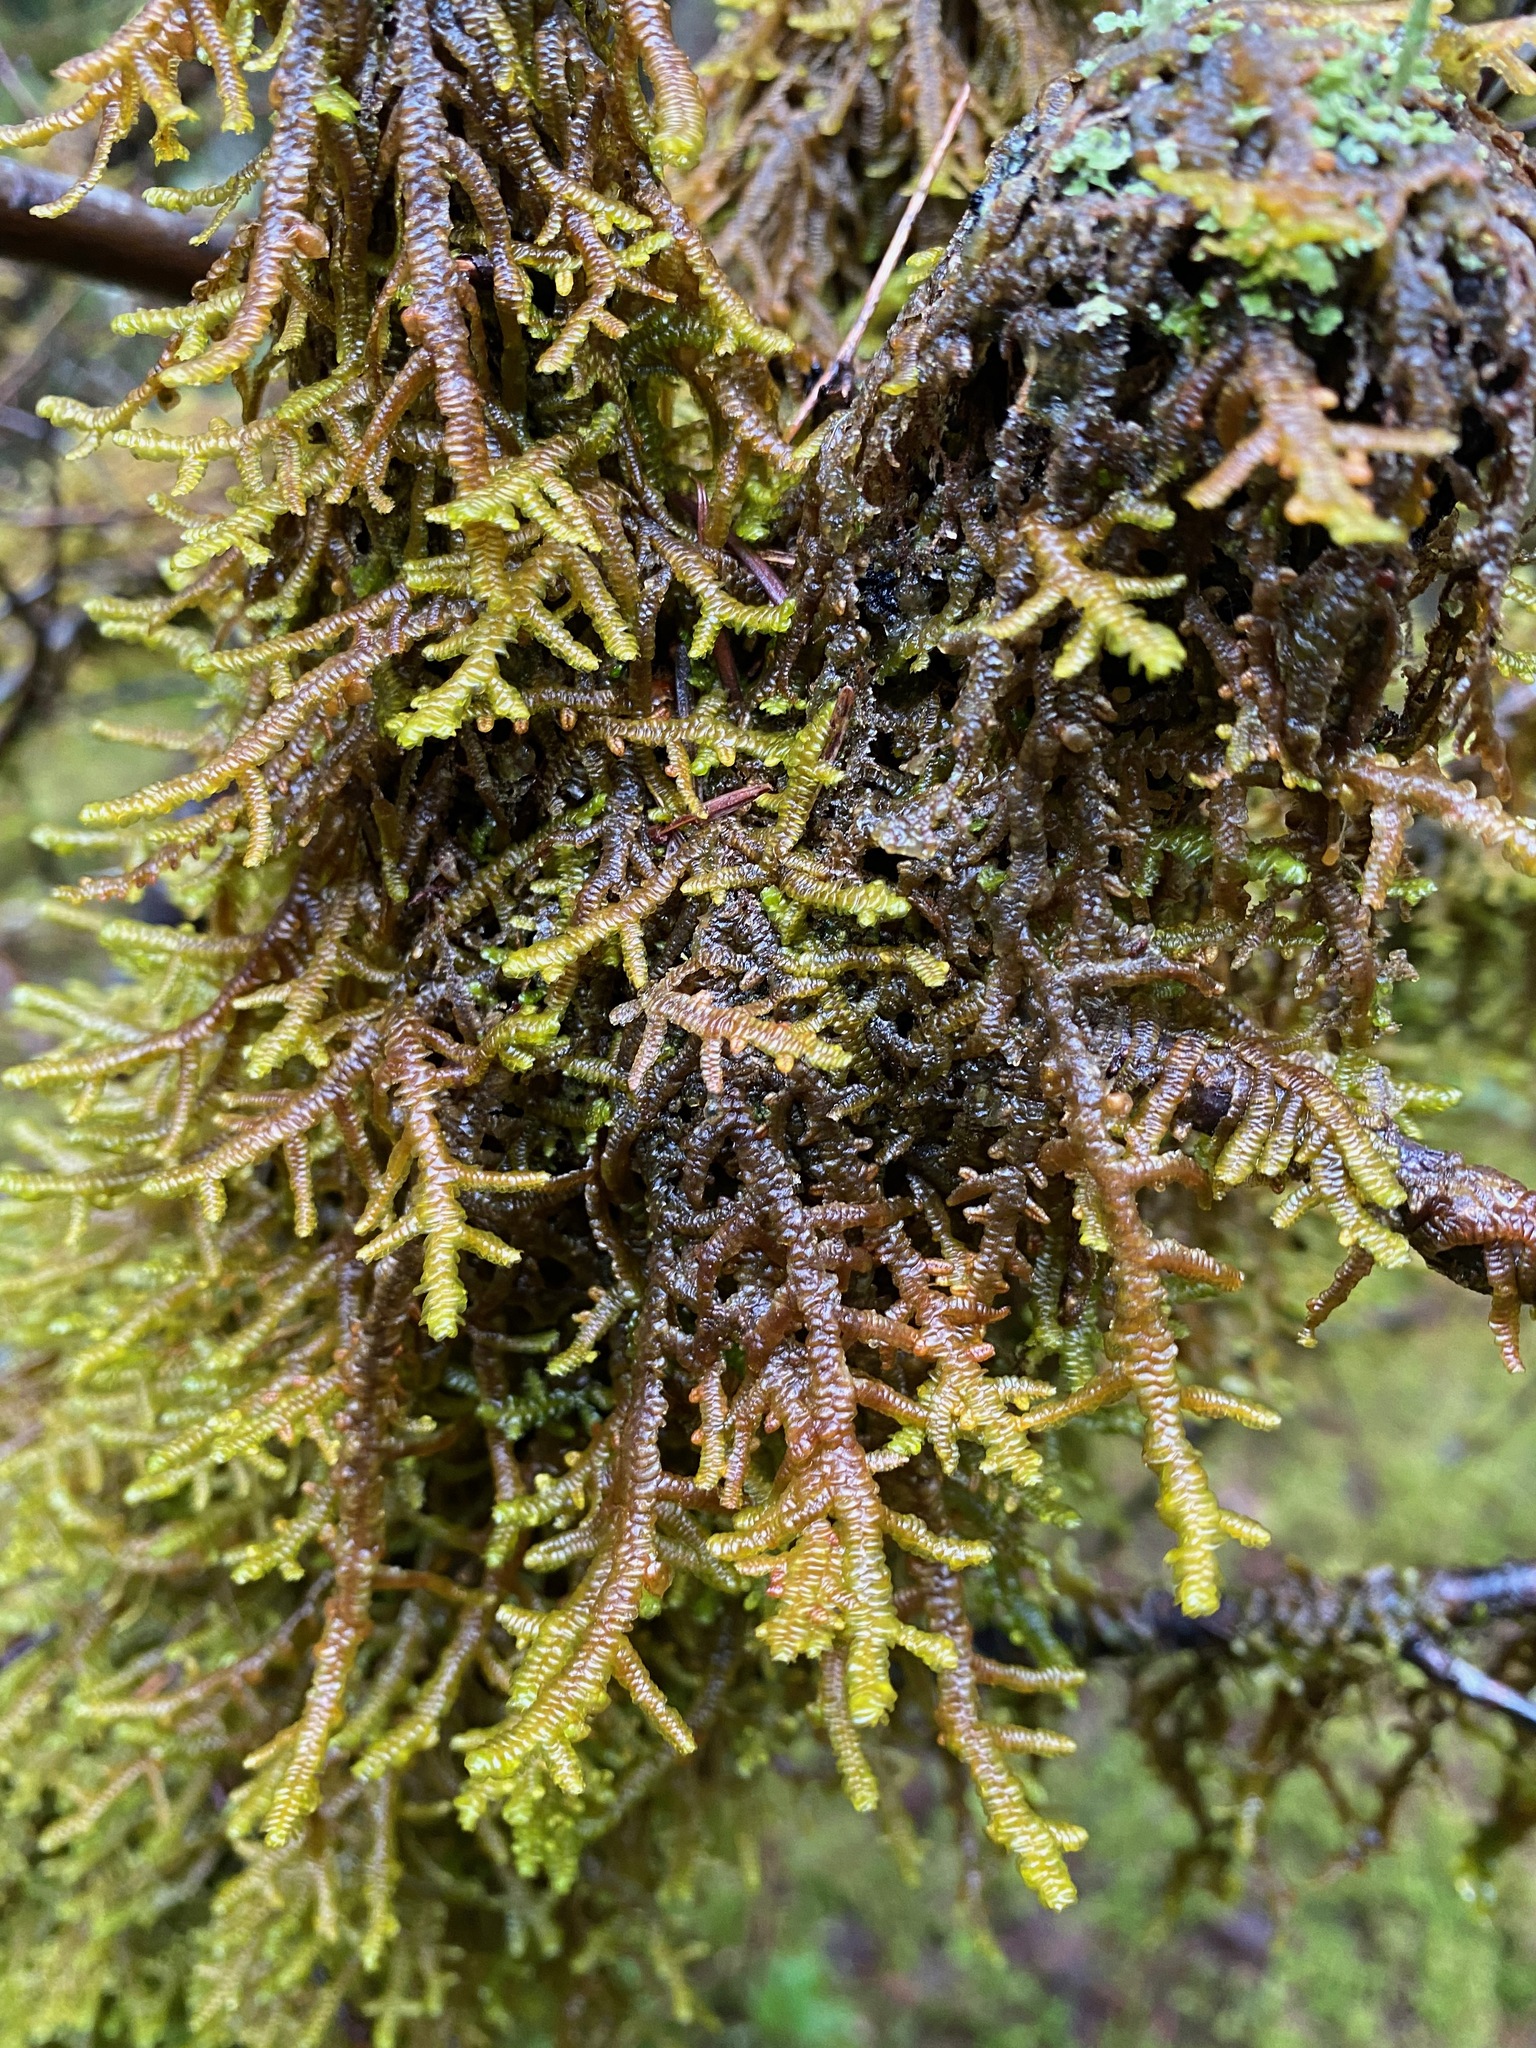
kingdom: Plantae
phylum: Marchantiophyta
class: Jungermanniopsida
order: Porellales
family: Porellaceae
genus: Porella
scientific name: Porella navicularis
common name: Tree ruffle liverwort
